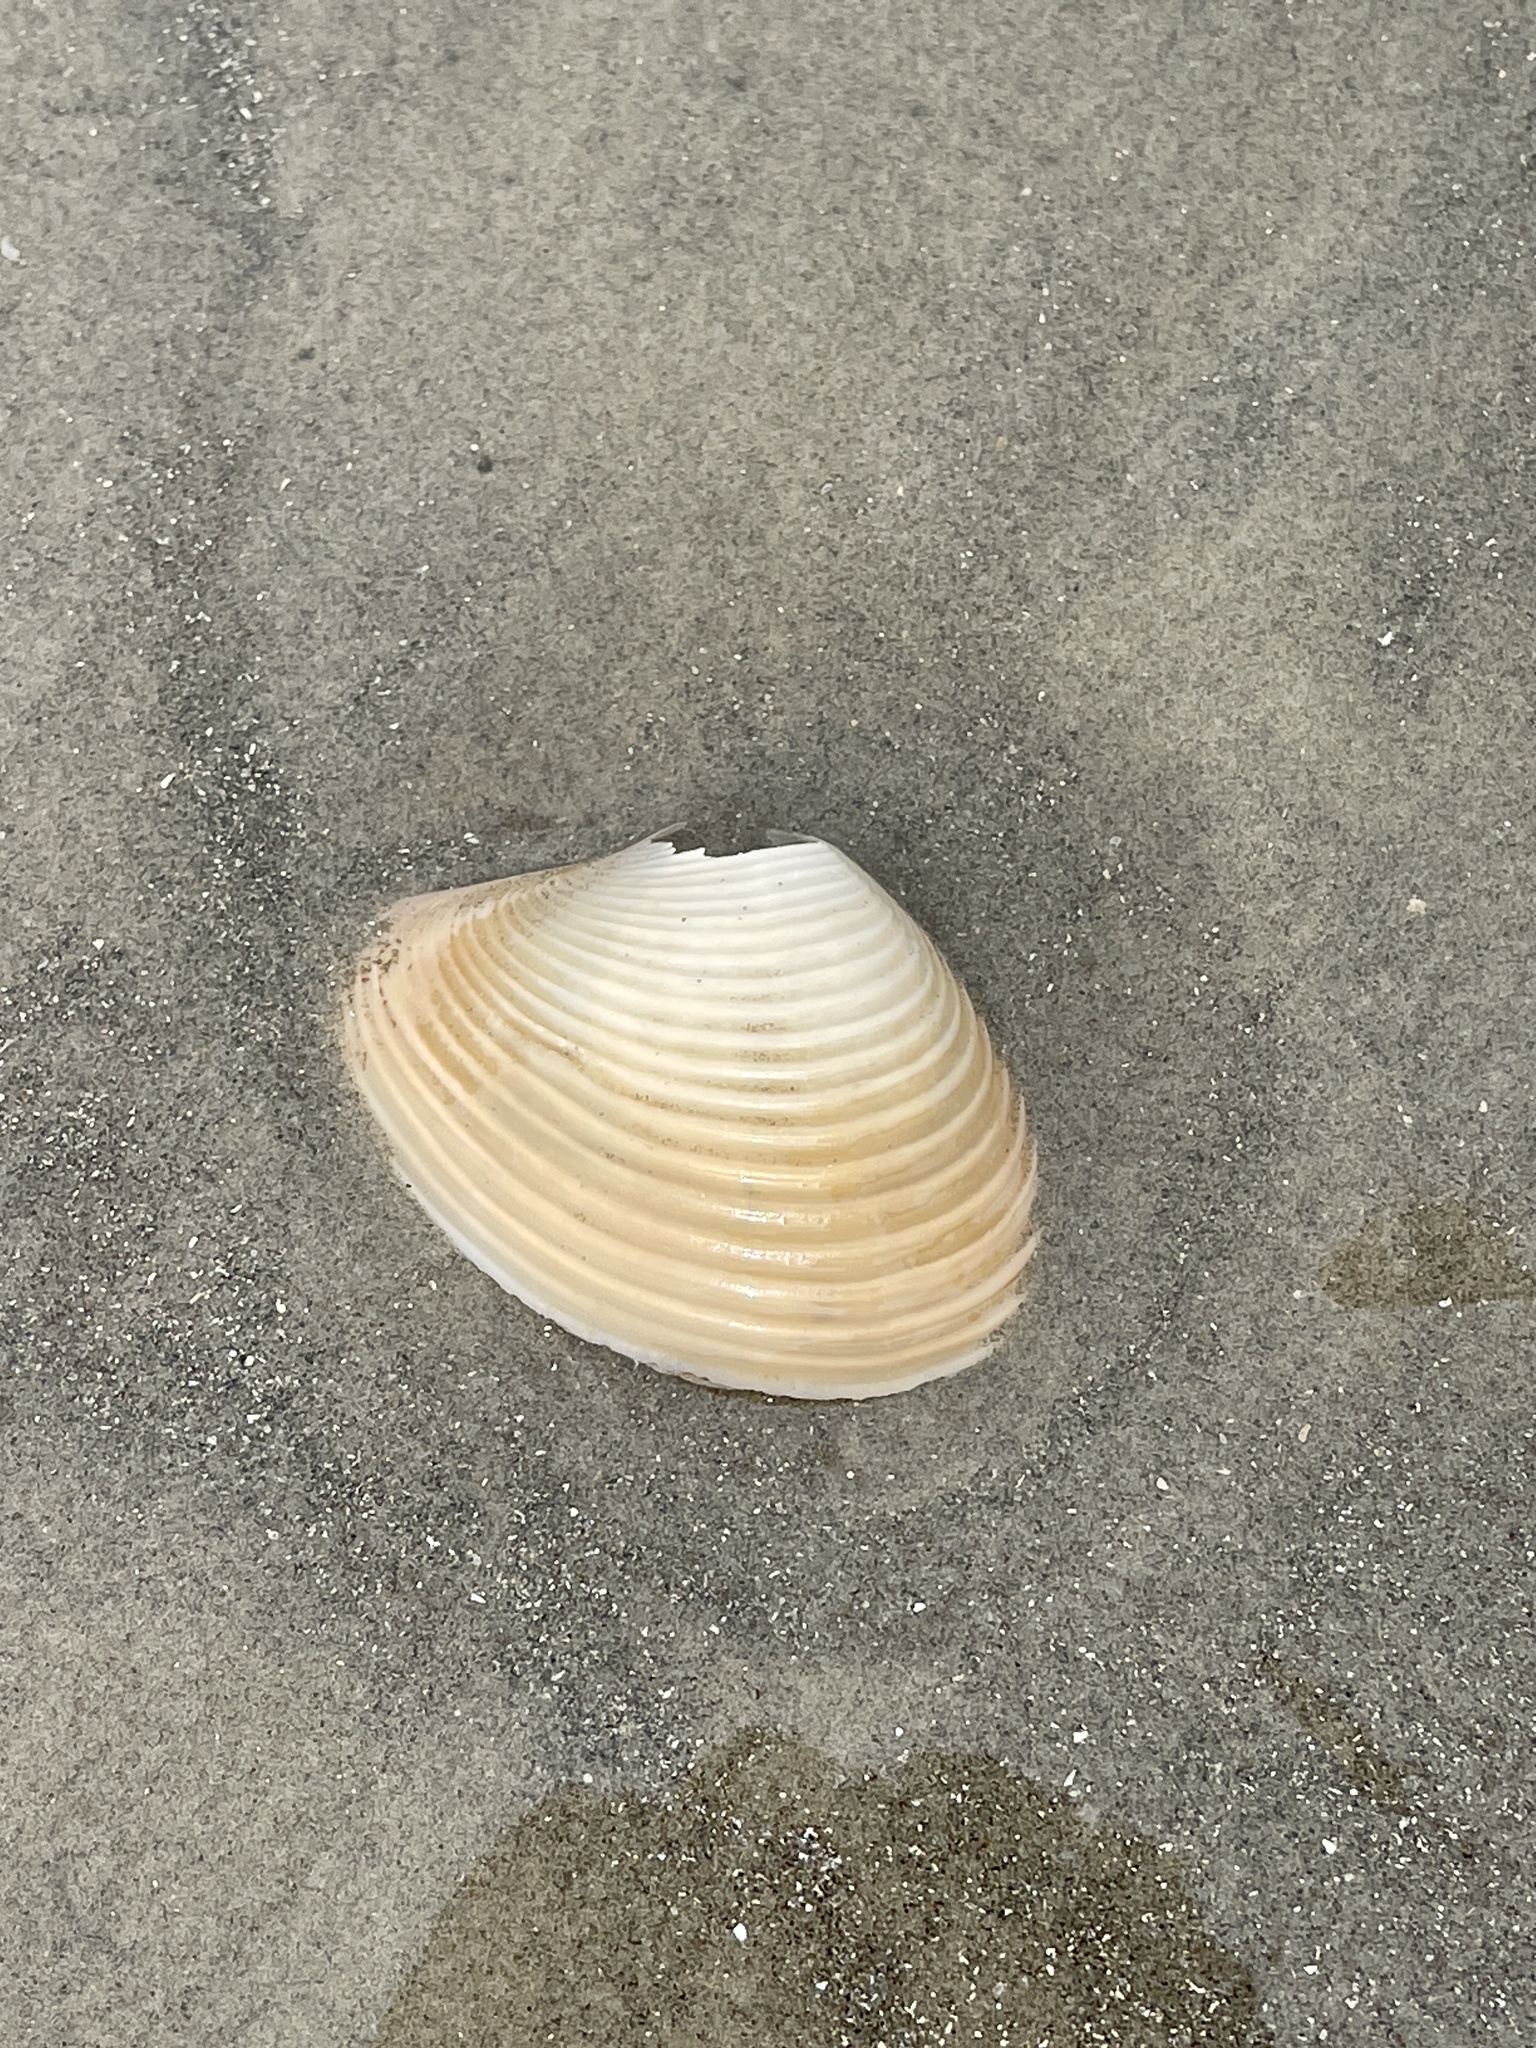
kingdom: Animalia
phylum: Mollusca
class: Bivalvia
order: Venerida
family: Anatinellidae
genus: Raeta
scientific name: Raeta plicatella
